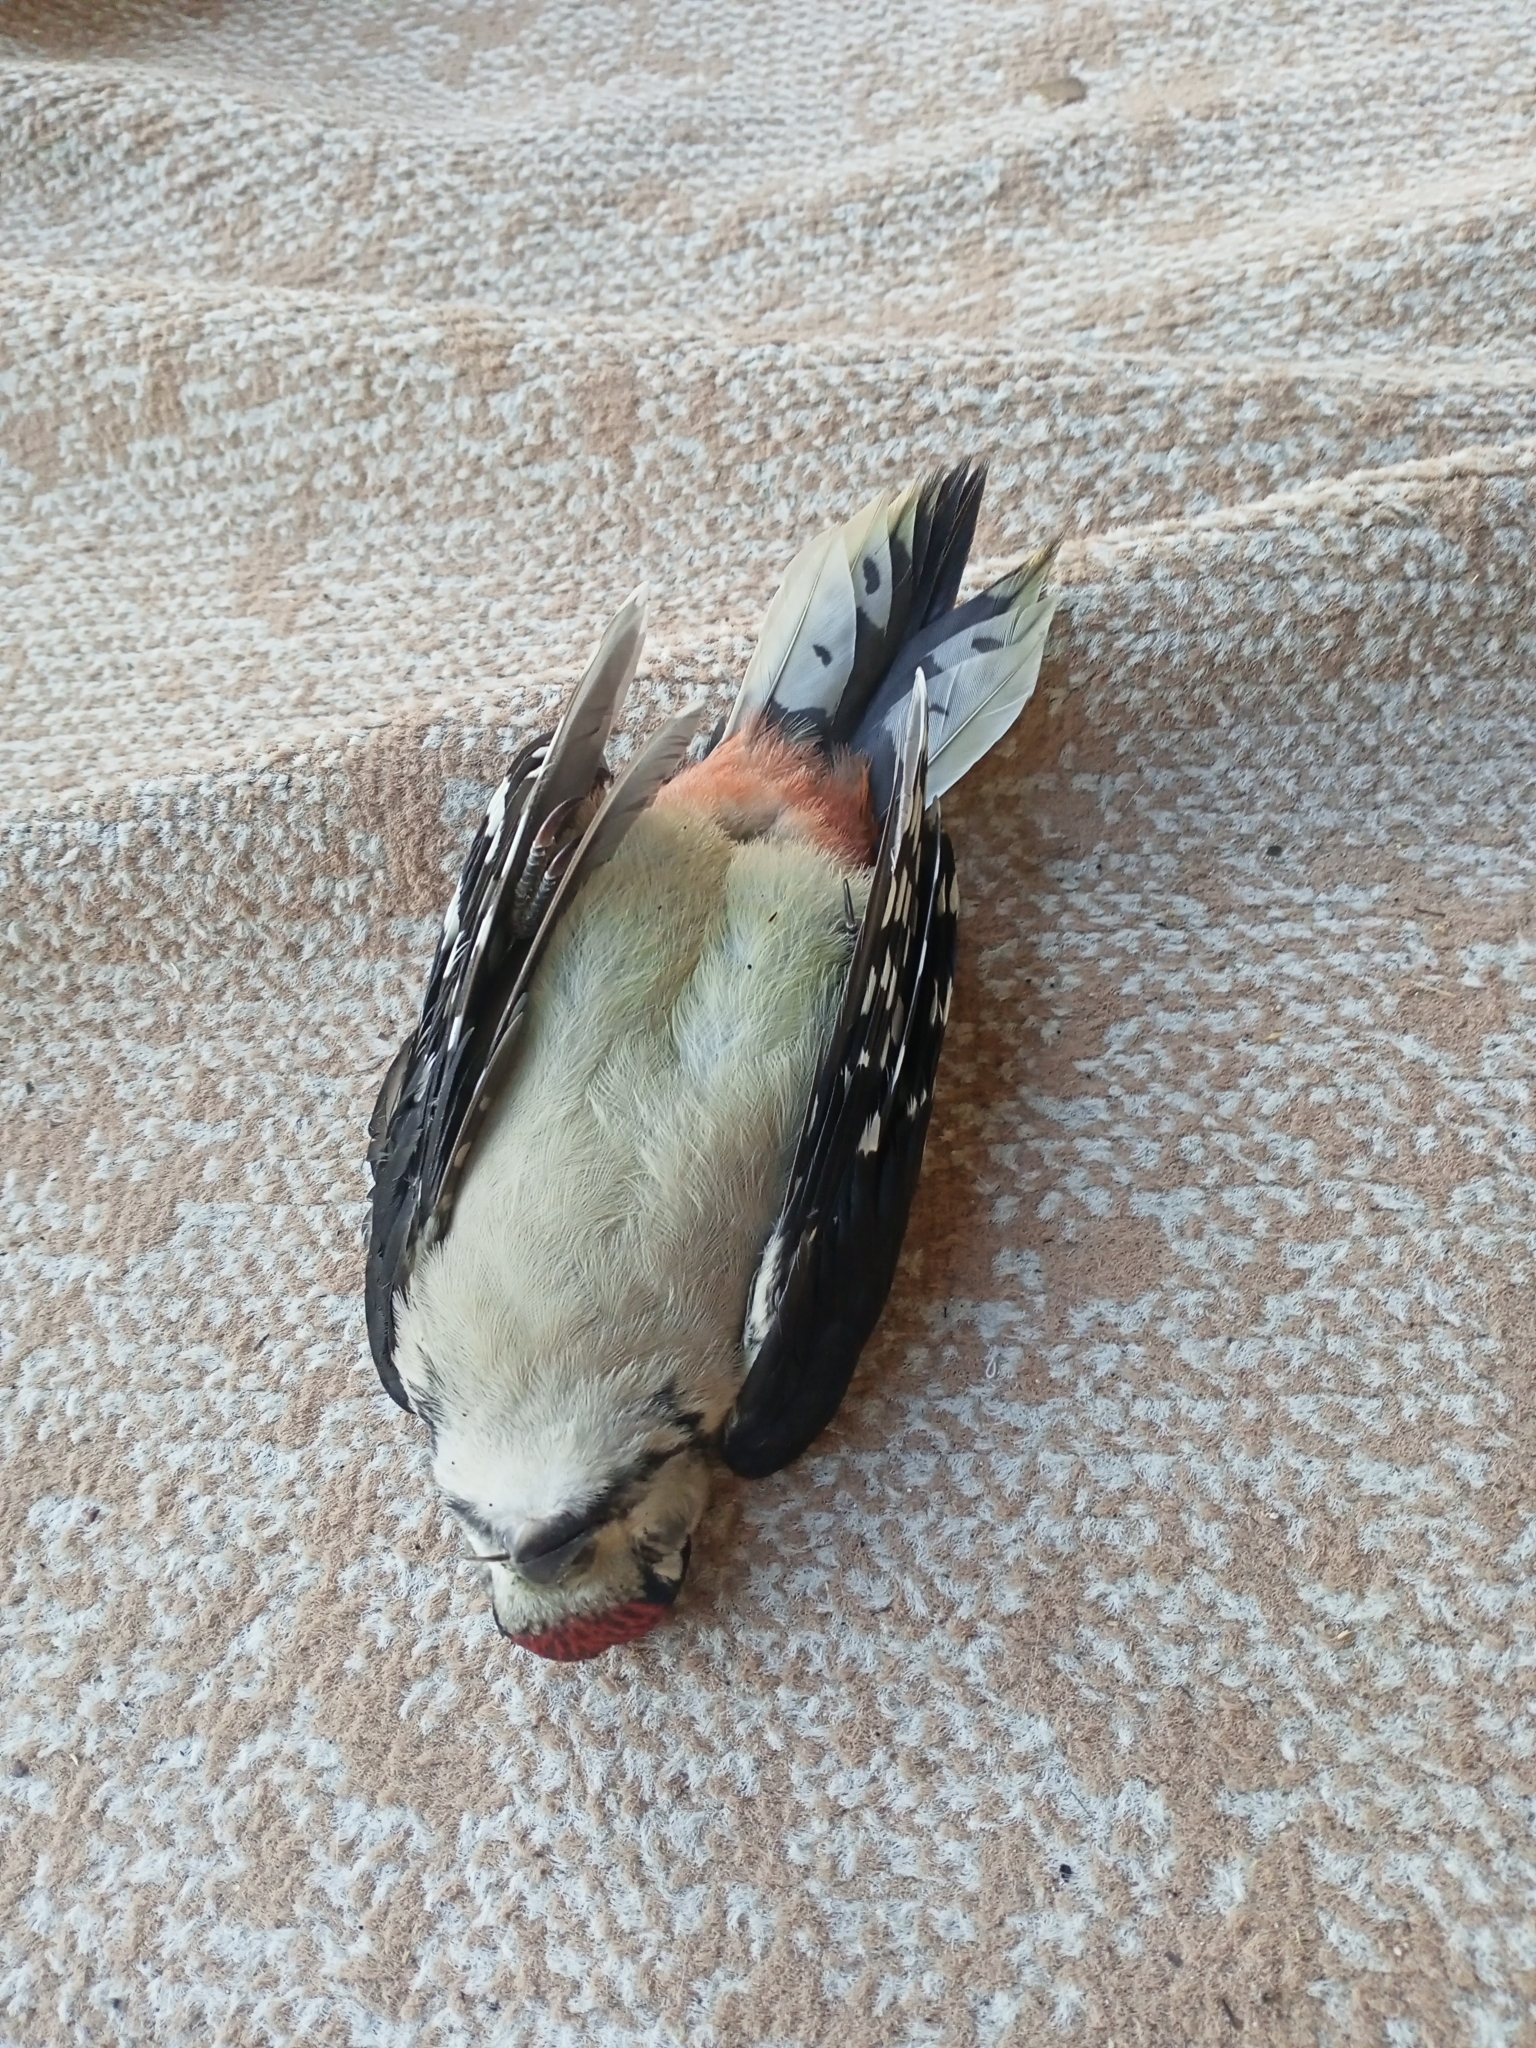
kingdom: Animalia
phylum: Chordata
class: Aves
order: Piciformes
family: Picidae
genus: Dendrocopos
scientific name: Dendrocopos major
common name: Great spotted woodpecker
